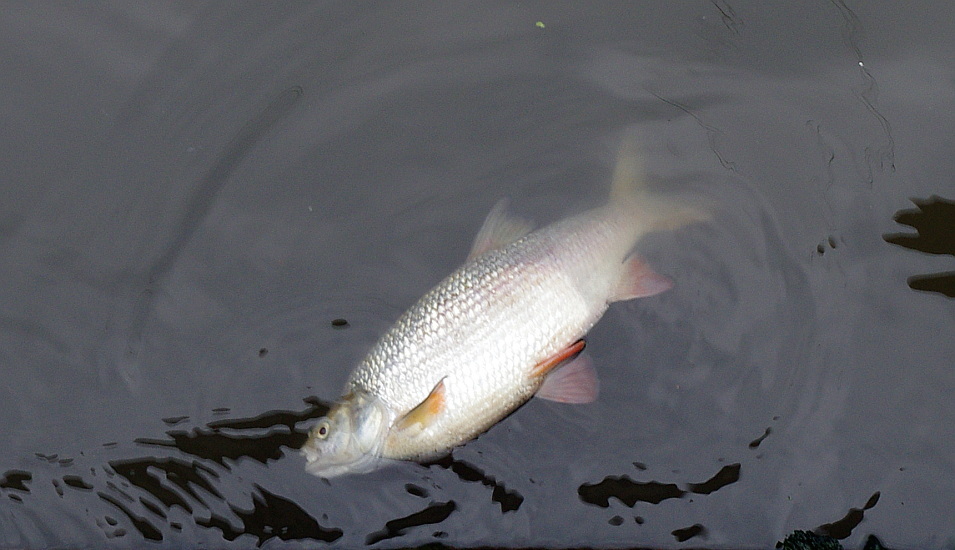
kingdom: Animalia
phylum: Chordata
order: Cypriniformes
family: Cyprinidae
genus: Leuciscus
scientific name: Leuciscus idus
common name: Ide
